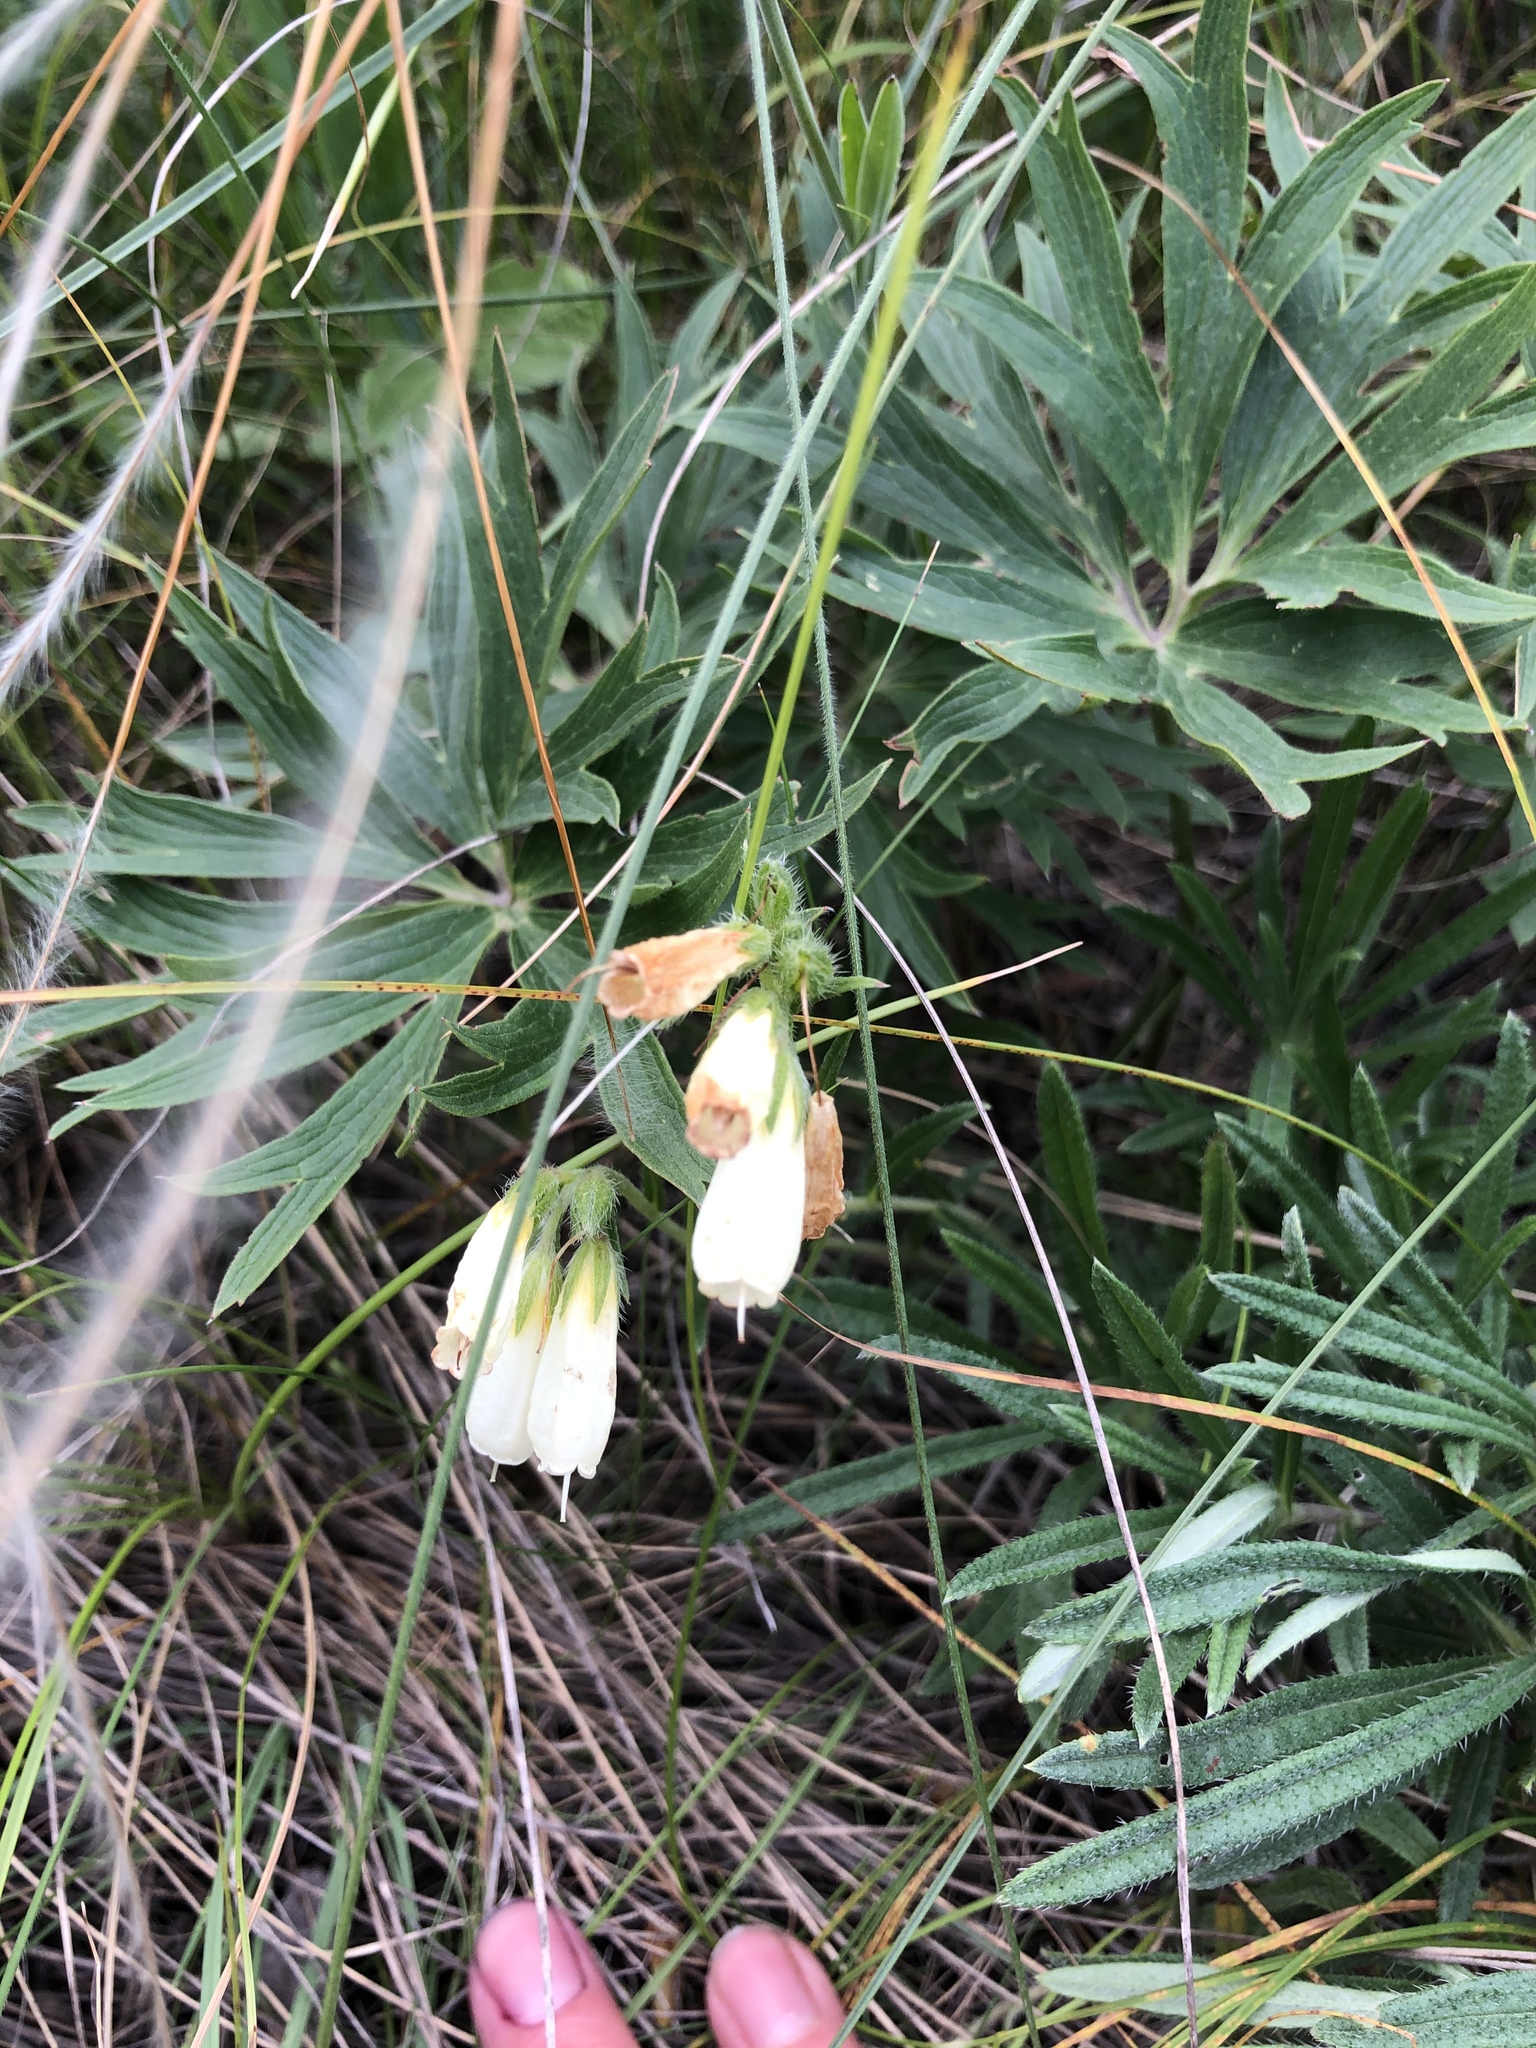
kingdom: Plantae
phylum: Tracheophyta
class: Magnoliopsida
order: Boraginales
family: Boraginaceae
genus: Onosma
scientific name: Onosma simplicissima
